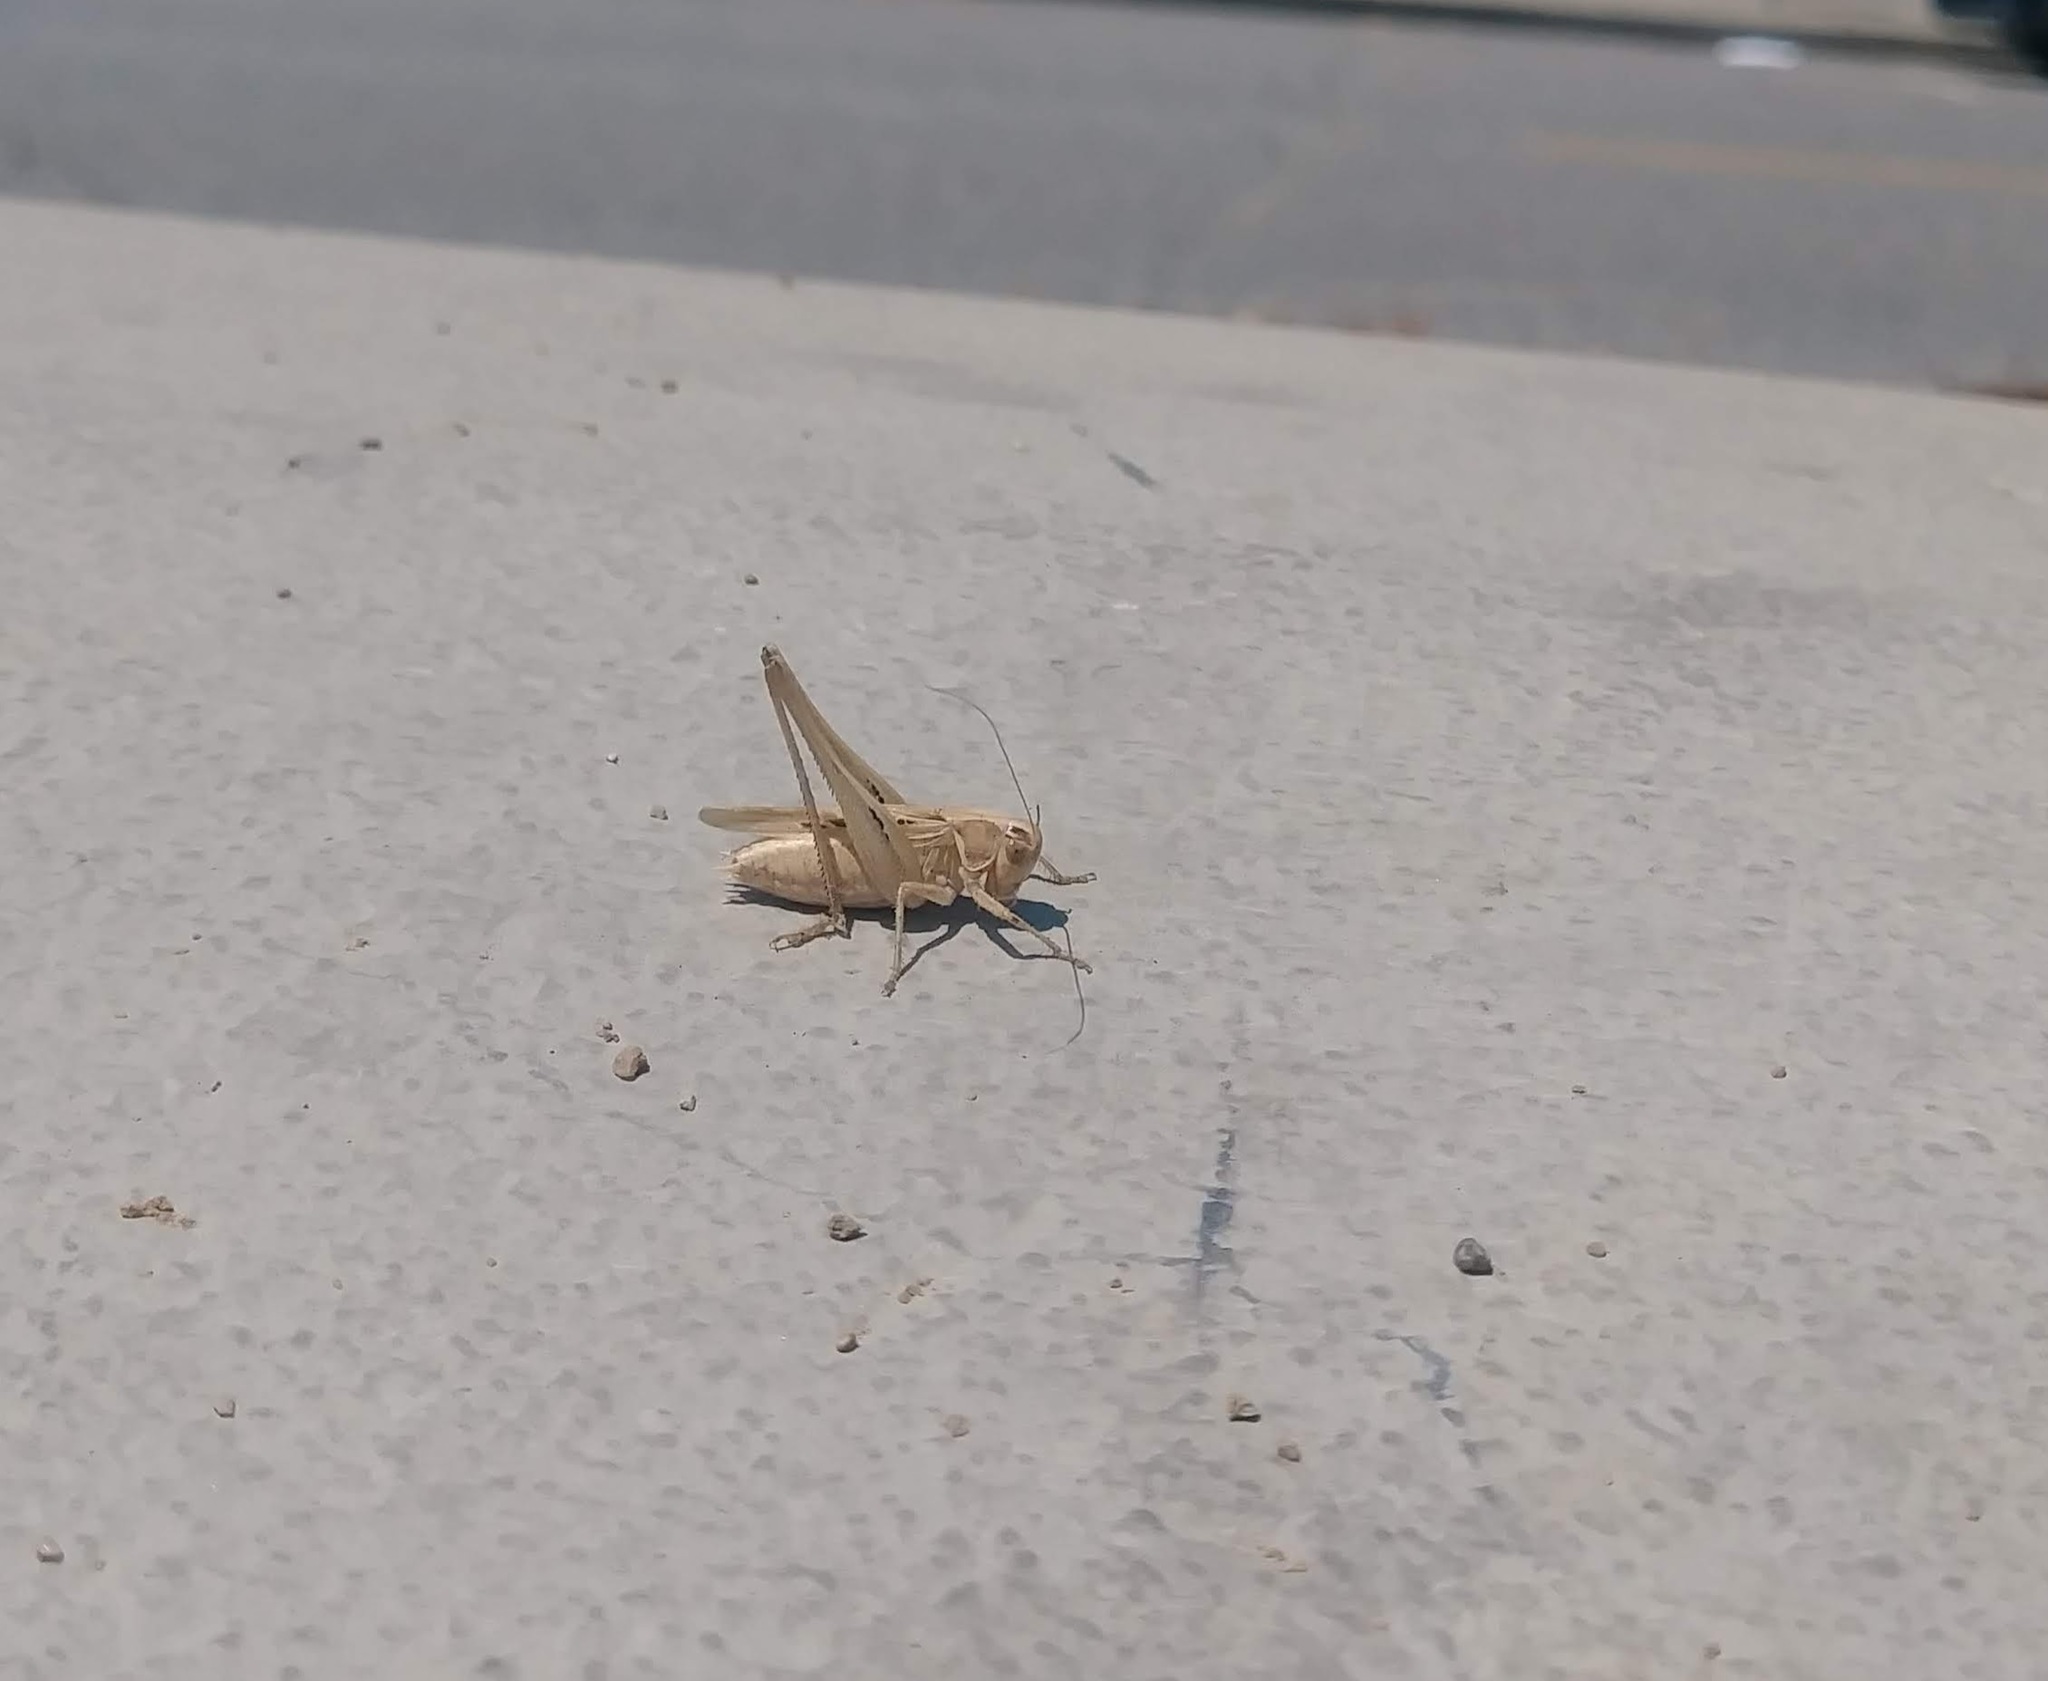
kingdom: Animalia
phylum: Arthropoda
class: Insecta
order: Orthoptera
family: Tettigoniidae
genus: Tessellana
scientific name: Tessellana tessellata
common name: Grasshopper
